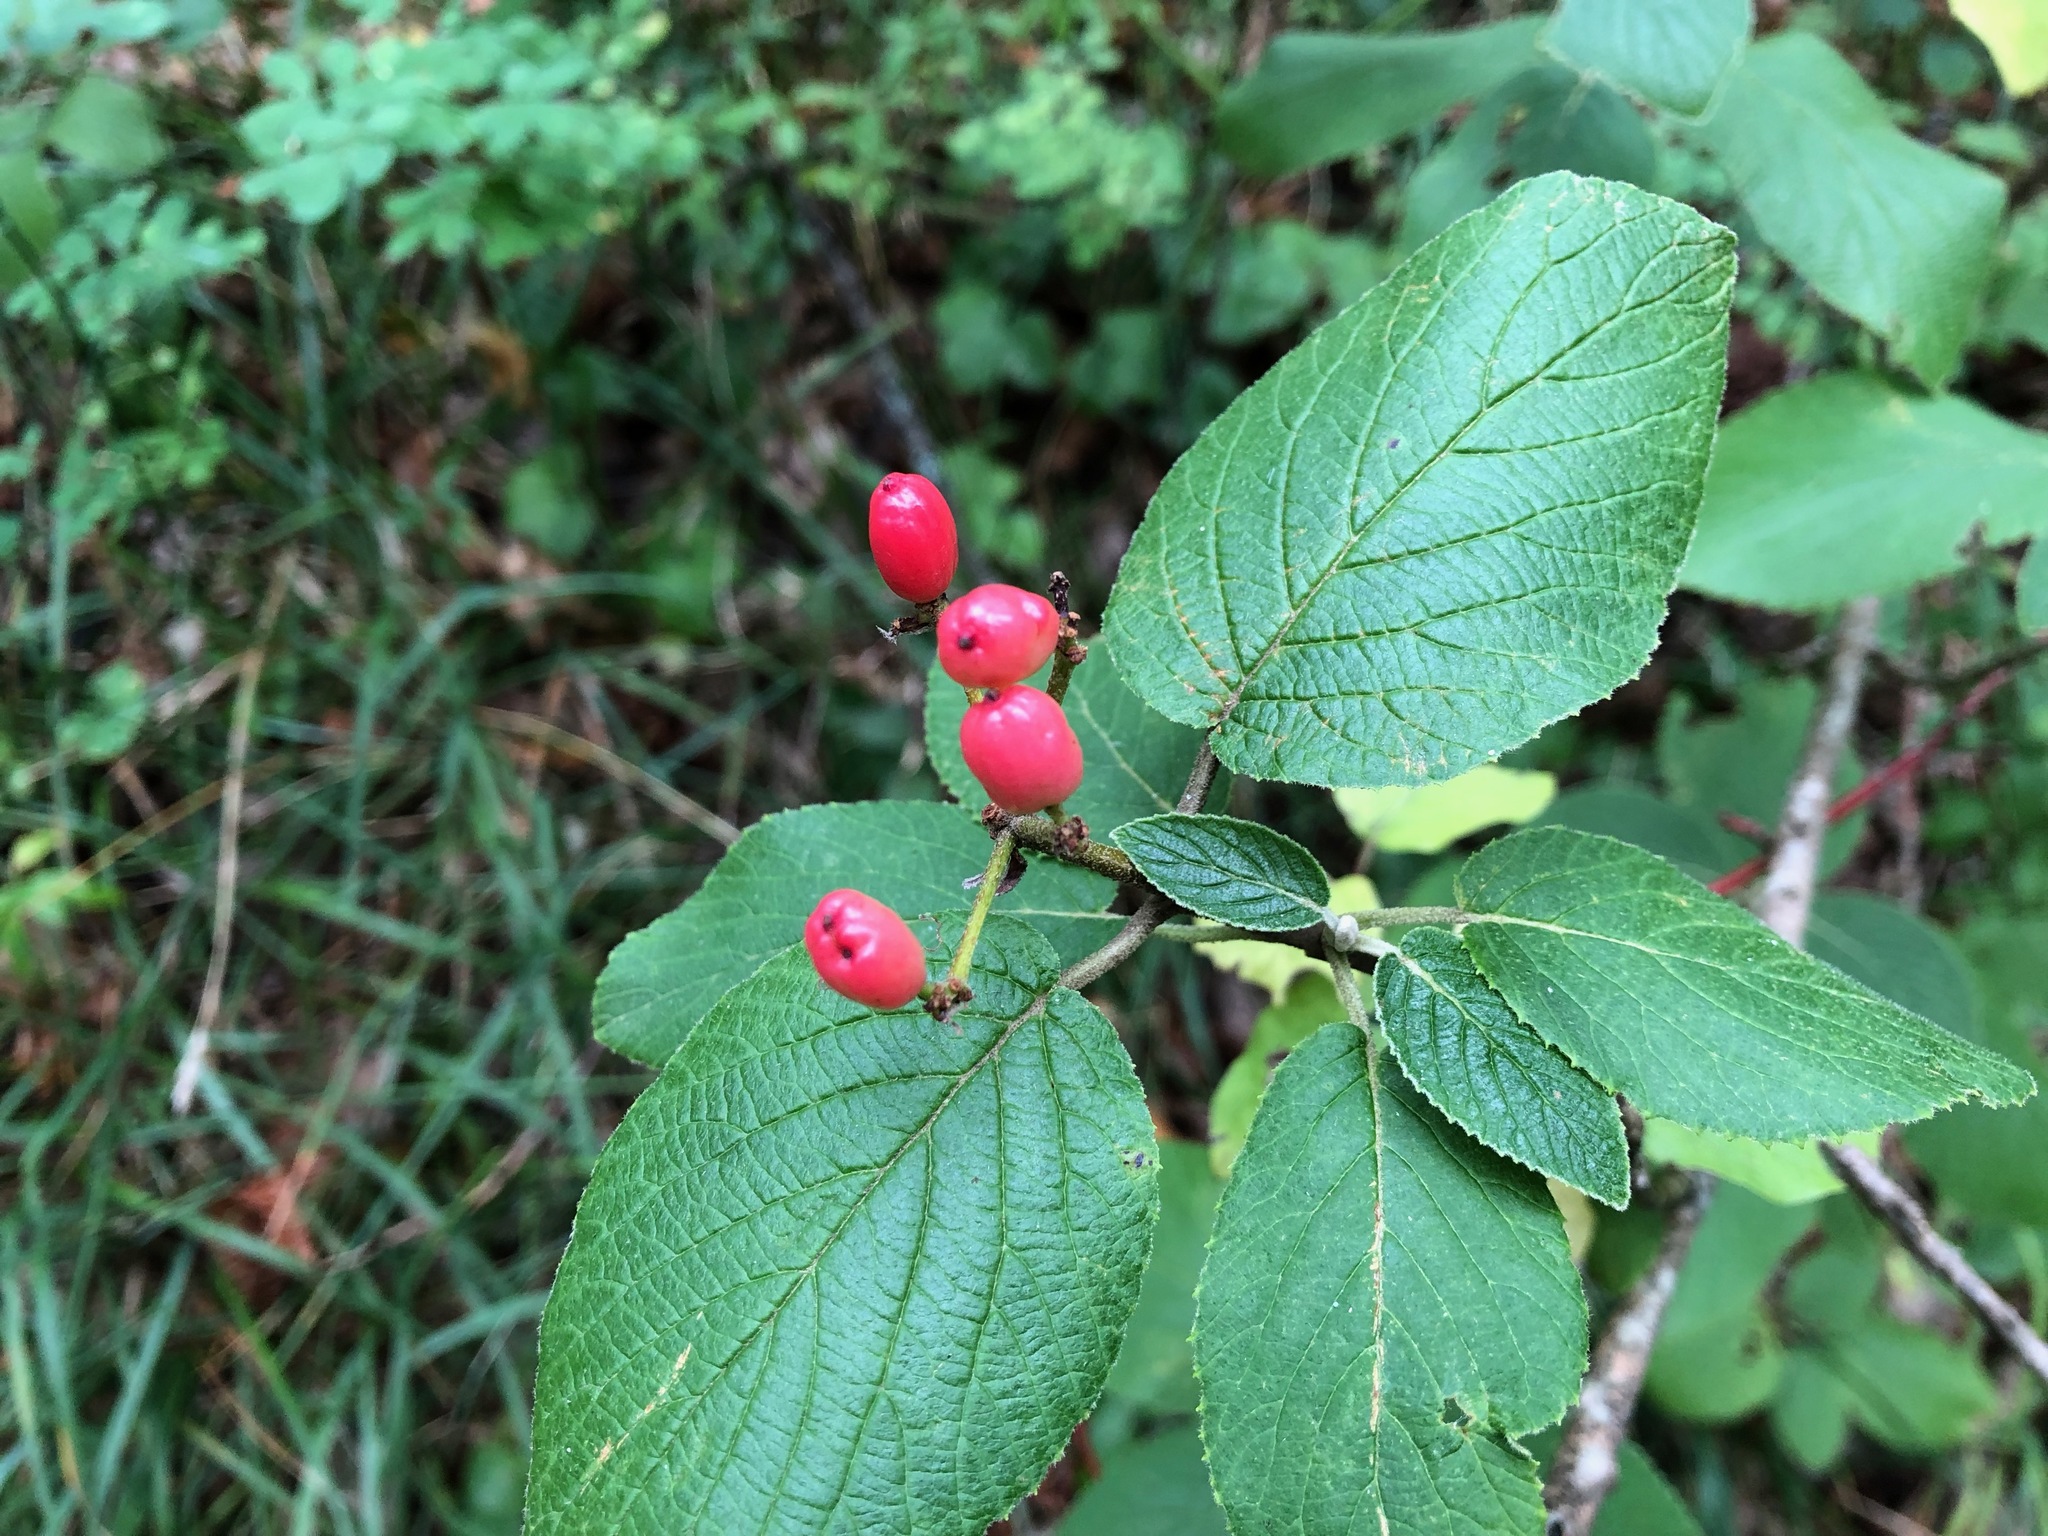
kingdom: Plantae
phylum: Tracheophyta
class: Magnoliopsida
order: Dipsacales
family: Viburnaceae
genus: Viburnum
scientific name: Viburnum lantana
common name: Wayfaring tree
